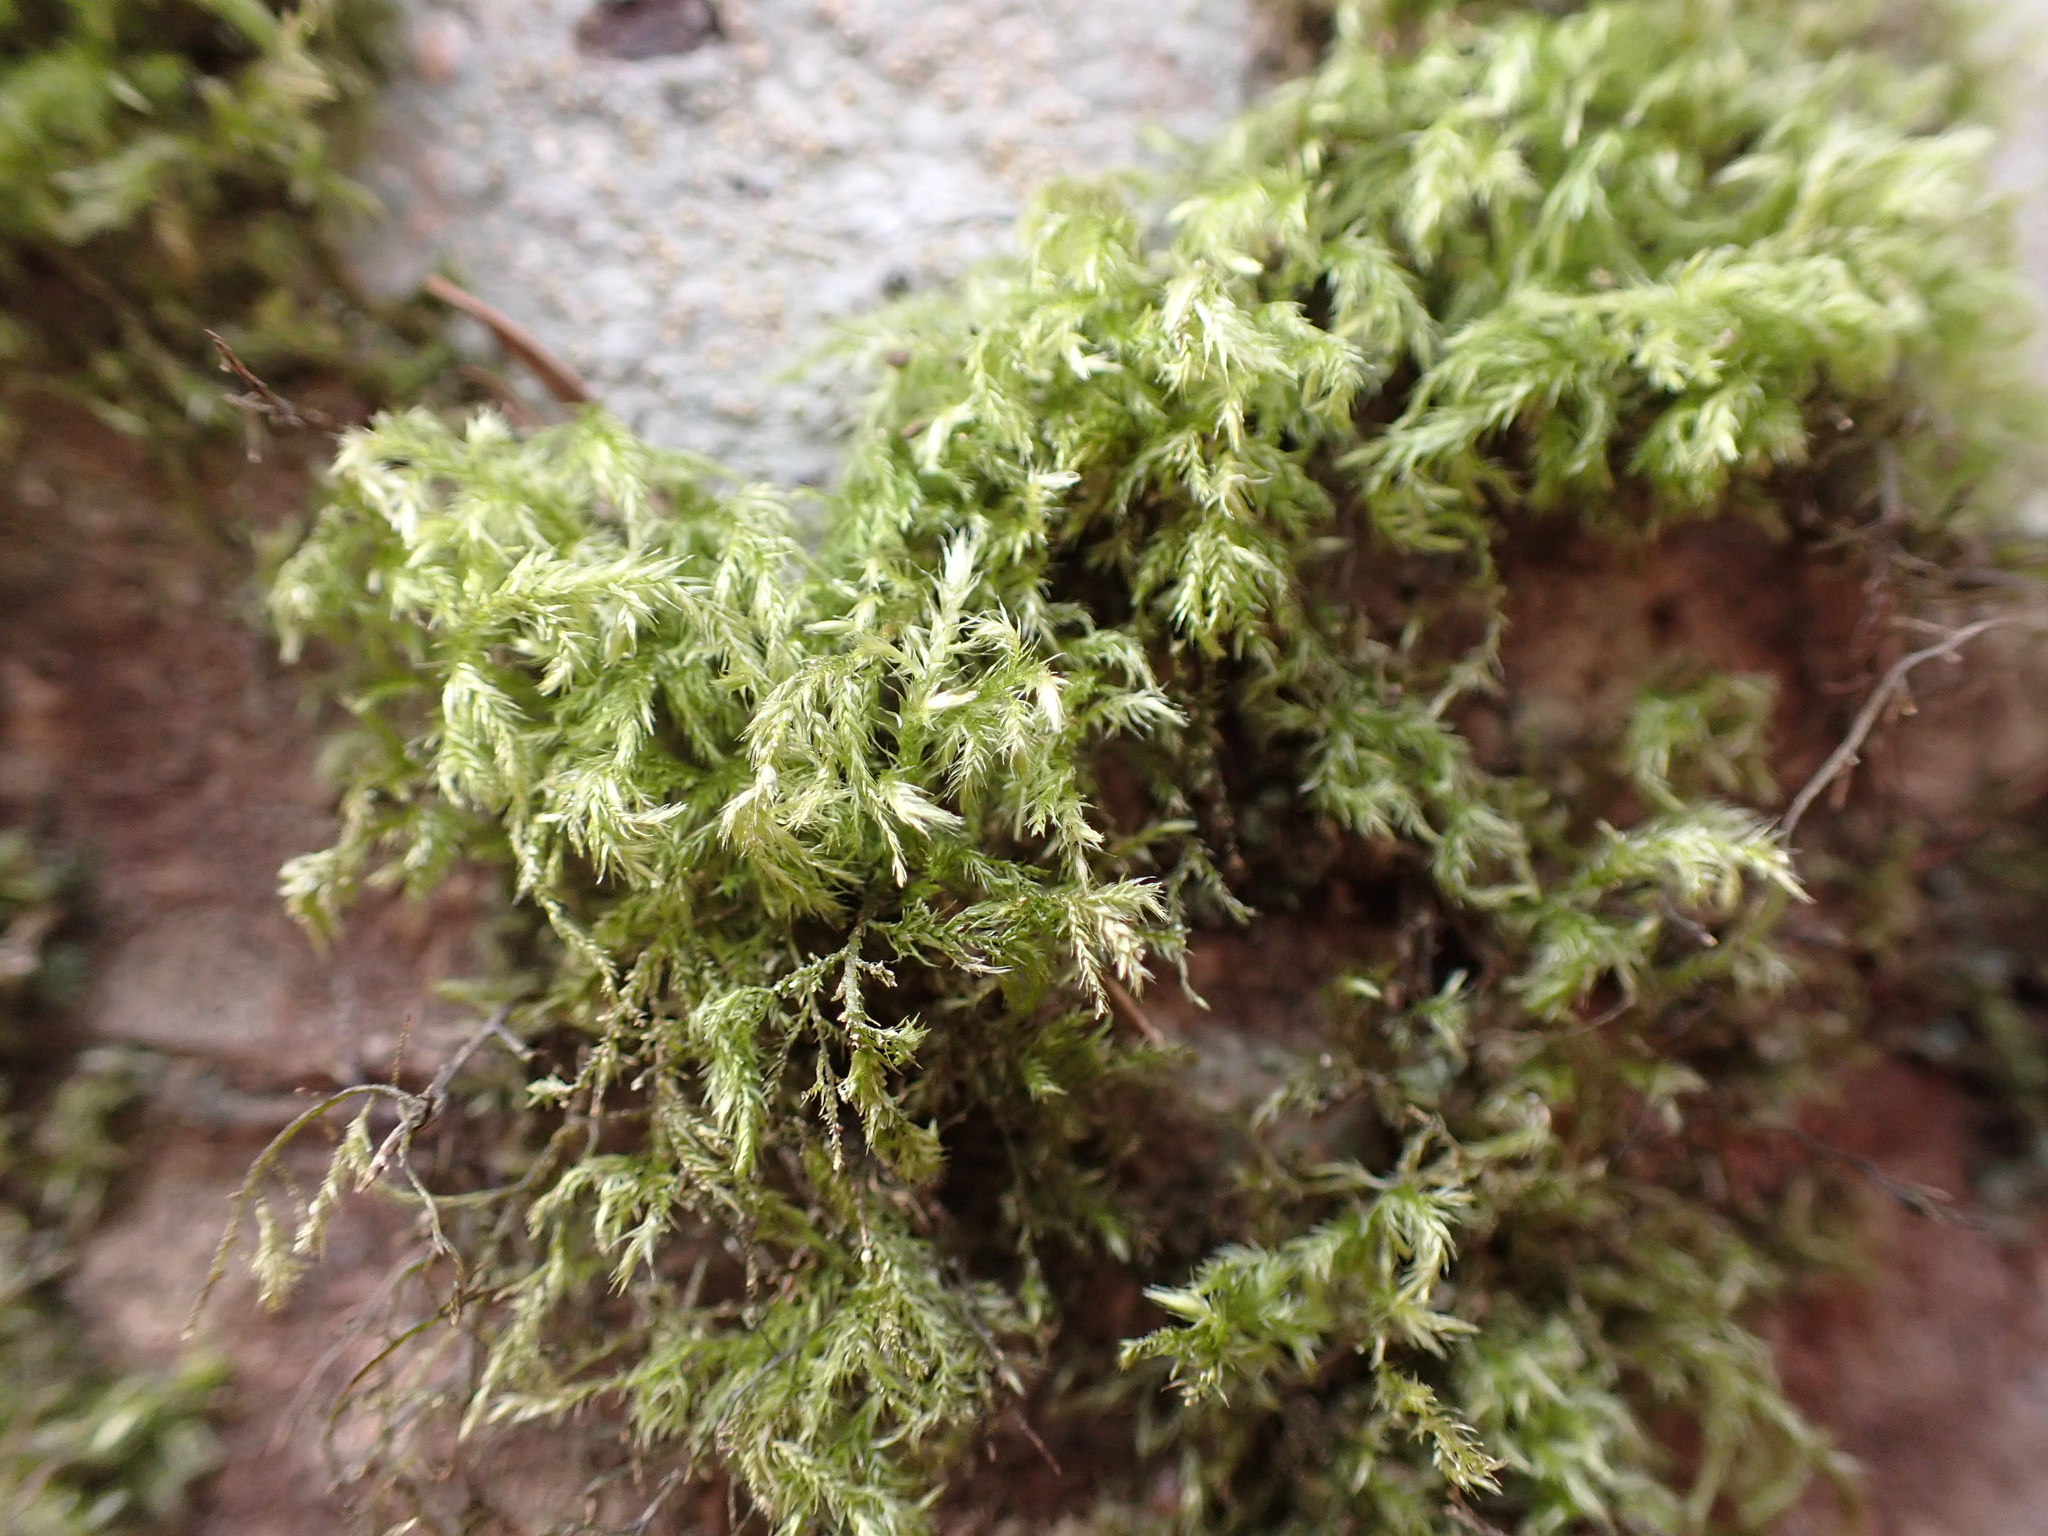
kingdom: Plantae
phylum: Bryophyta
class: Bryopsida
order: Hypnales
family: Lembophyllaceae
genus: Pseudisothecium
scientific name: Pseudisothecium stoloniferum
